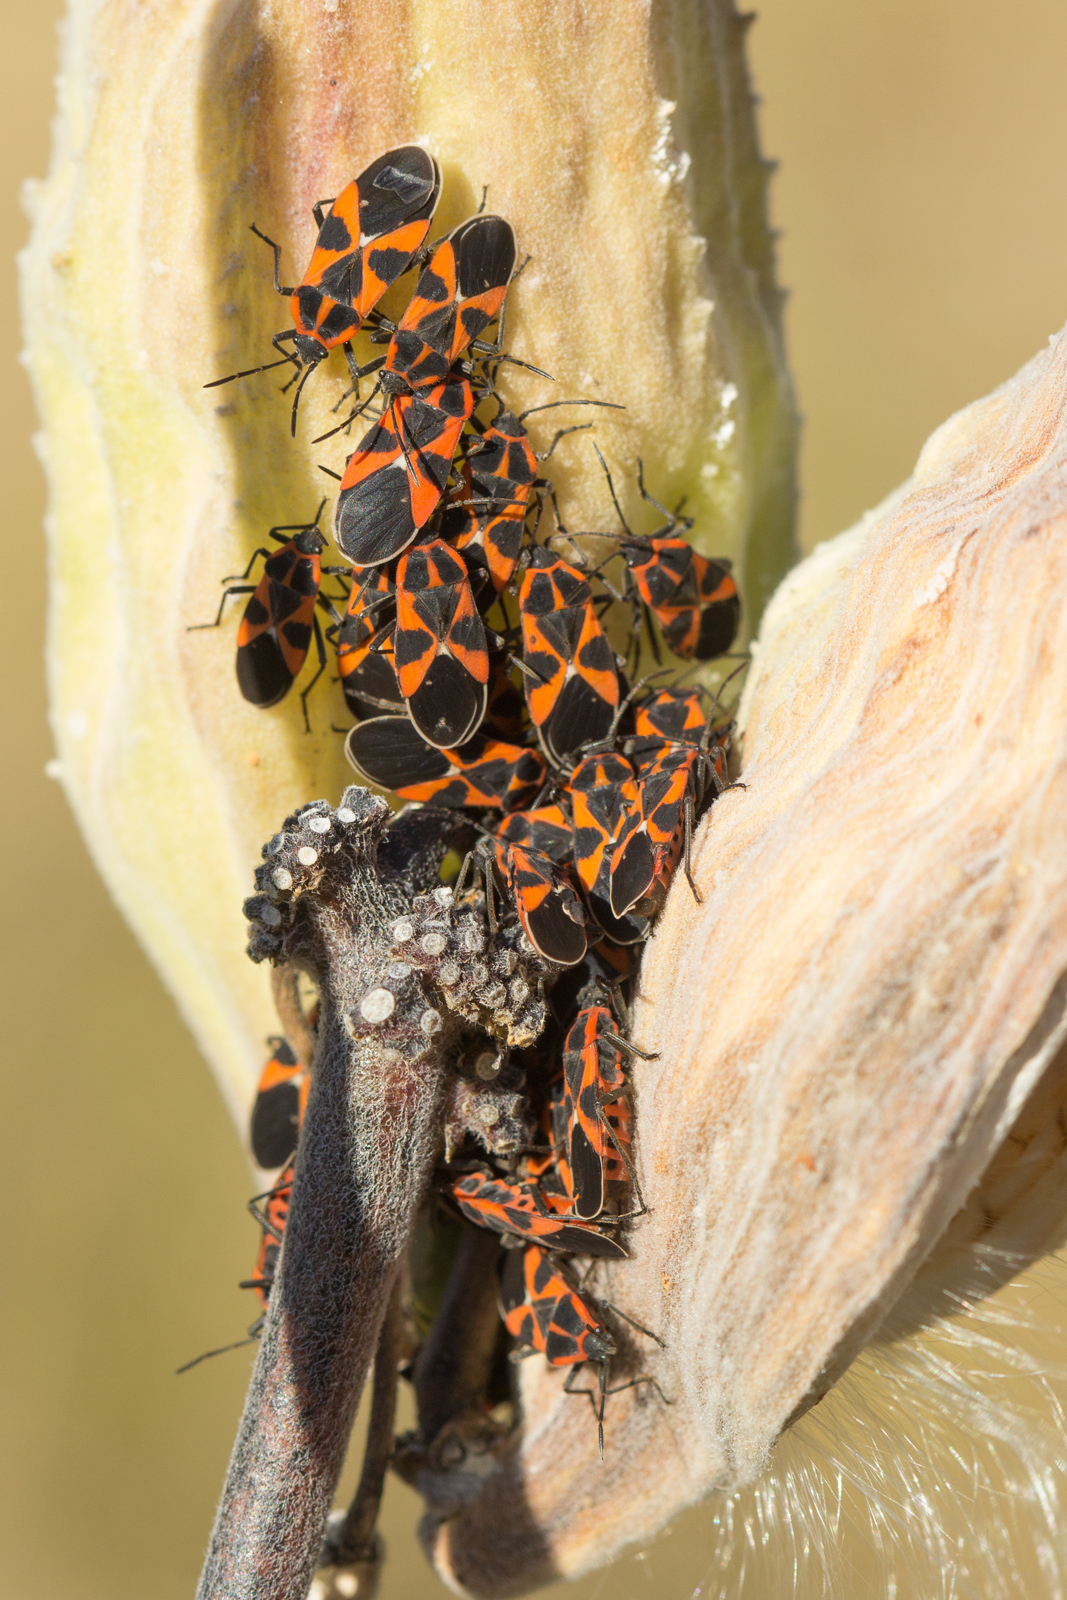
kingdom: Animalia
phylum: Arthropoda
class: Insecta
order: Hemiptera
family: Lygaeidae
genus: Tropidothorax
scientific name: Tropidothorax leucopterus
